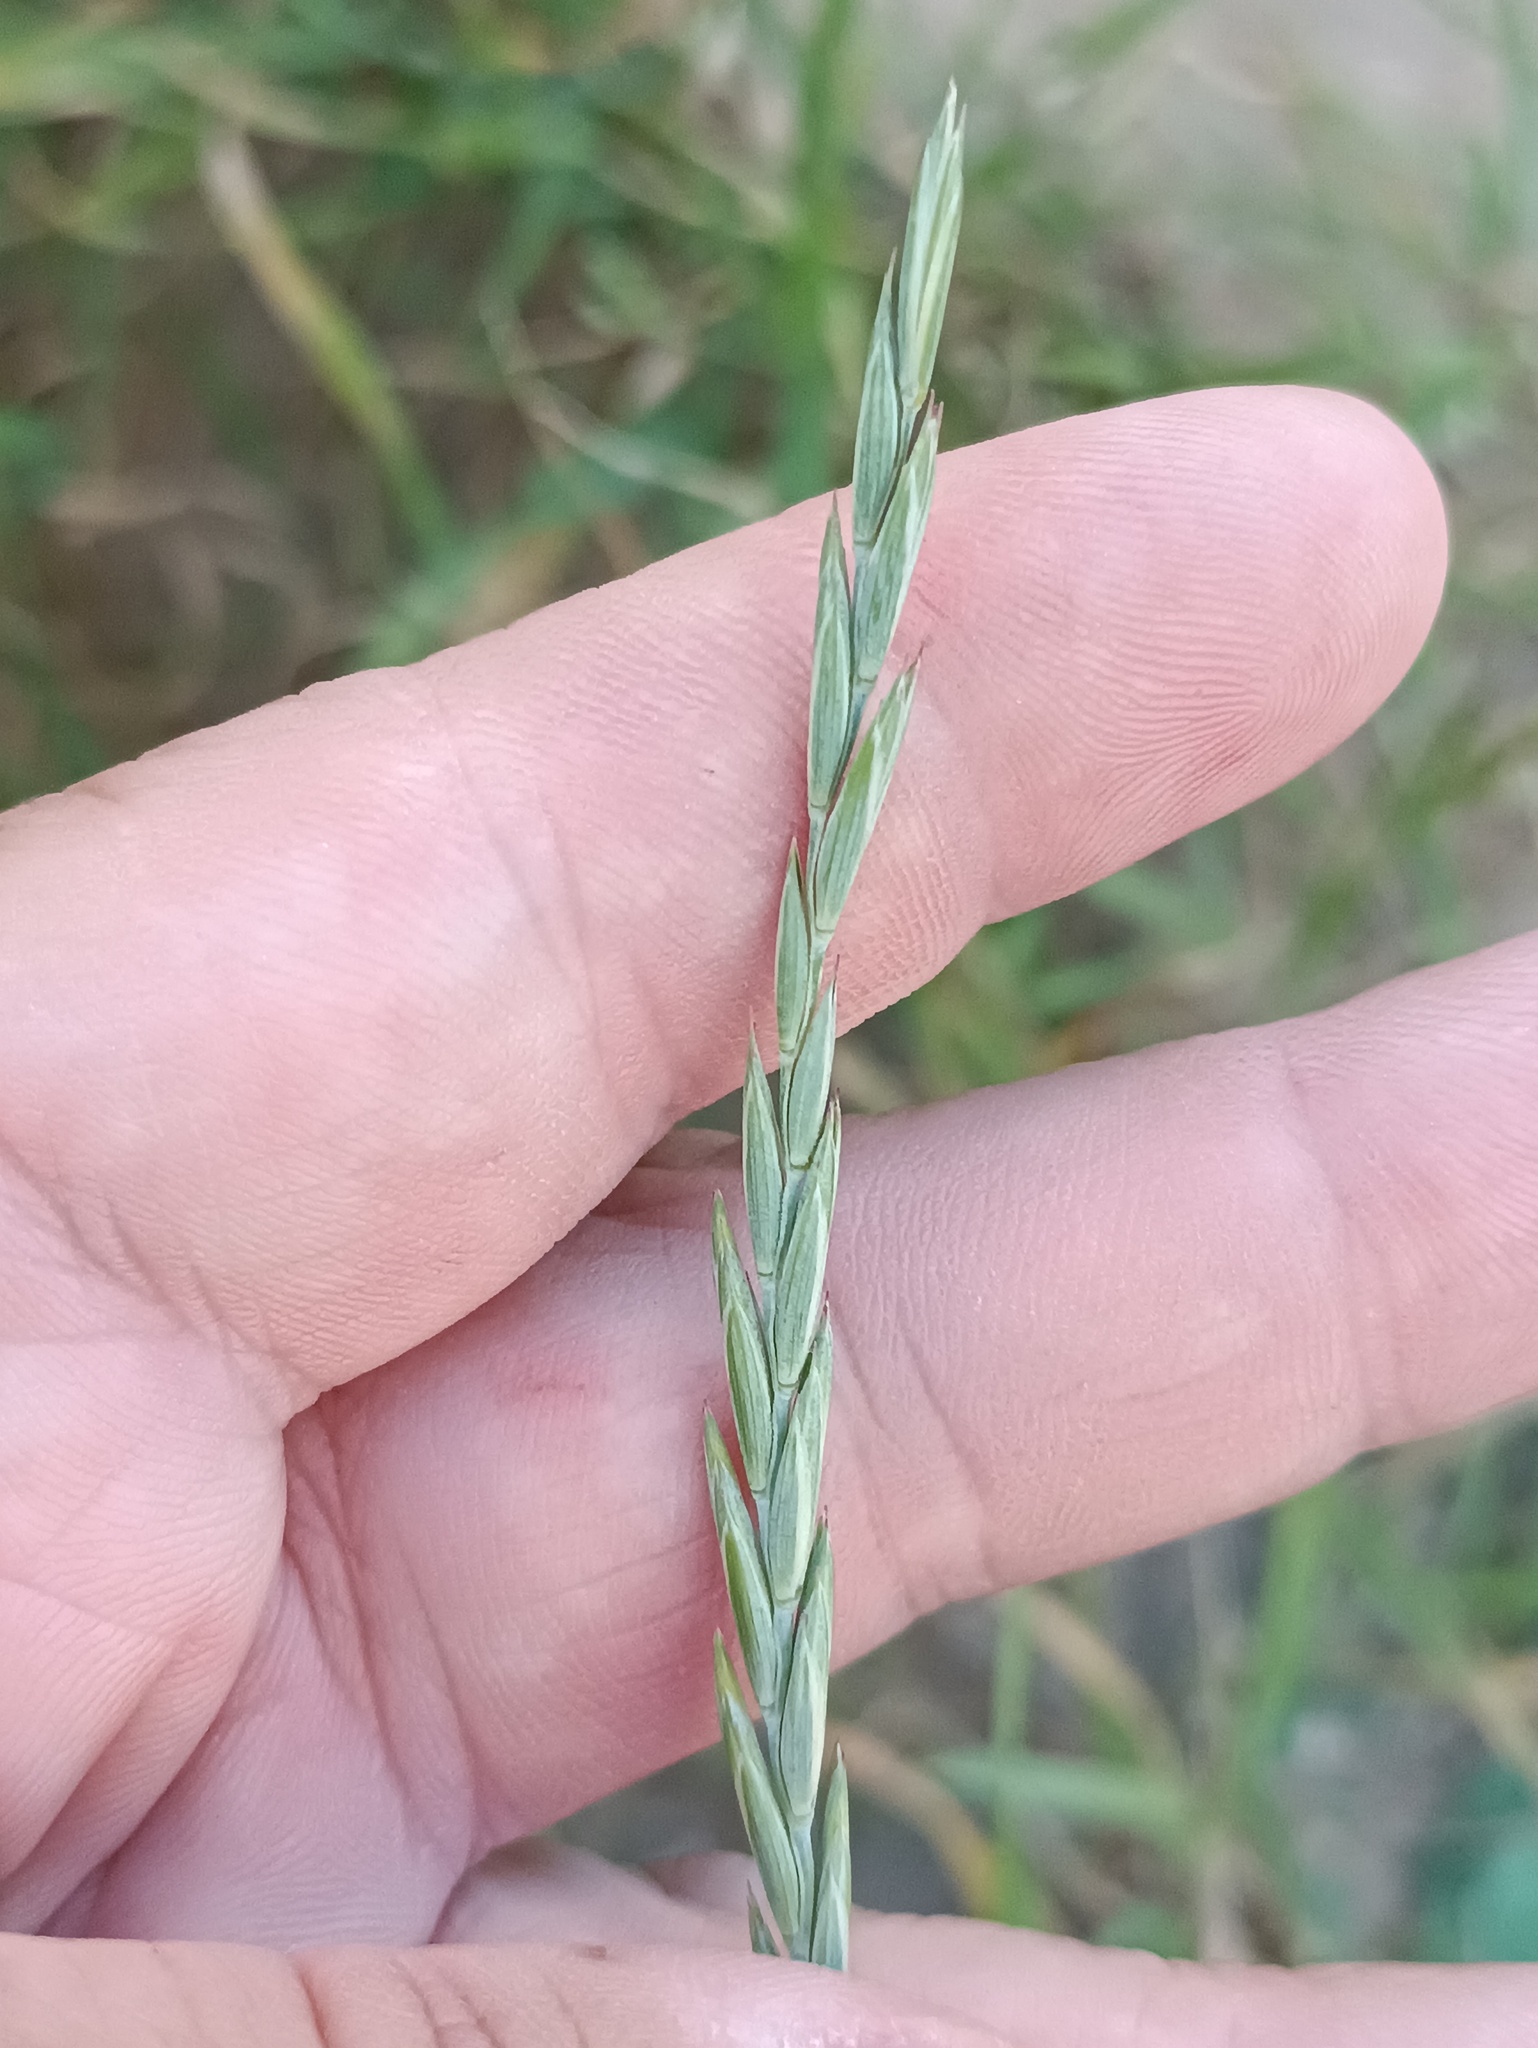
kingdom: Plantae
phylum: Tracheophyta
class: Liliopsida
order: Poales
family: Poaceae
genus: Elymus
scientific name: Elymus repens
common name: Quackgrass
